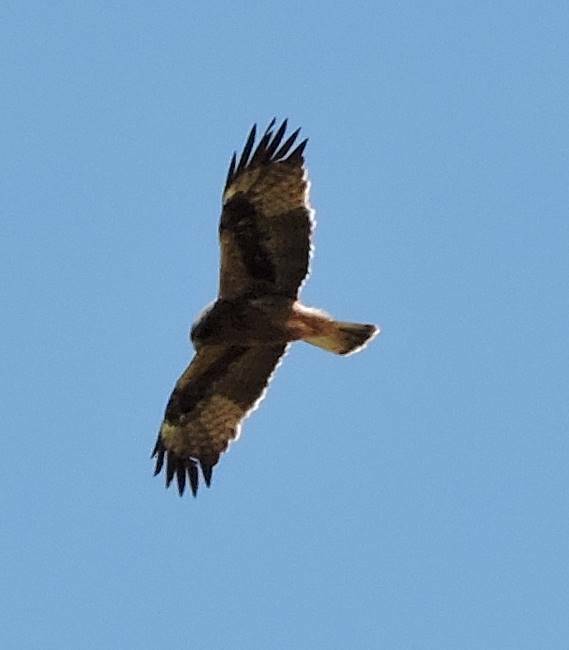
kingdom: Animalia
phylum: Chordata
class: Aves
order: Accipitriformes
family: Accipitridae
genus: Hieraaetus
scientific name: Hieraaetus pennatus
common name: Booted eagle
